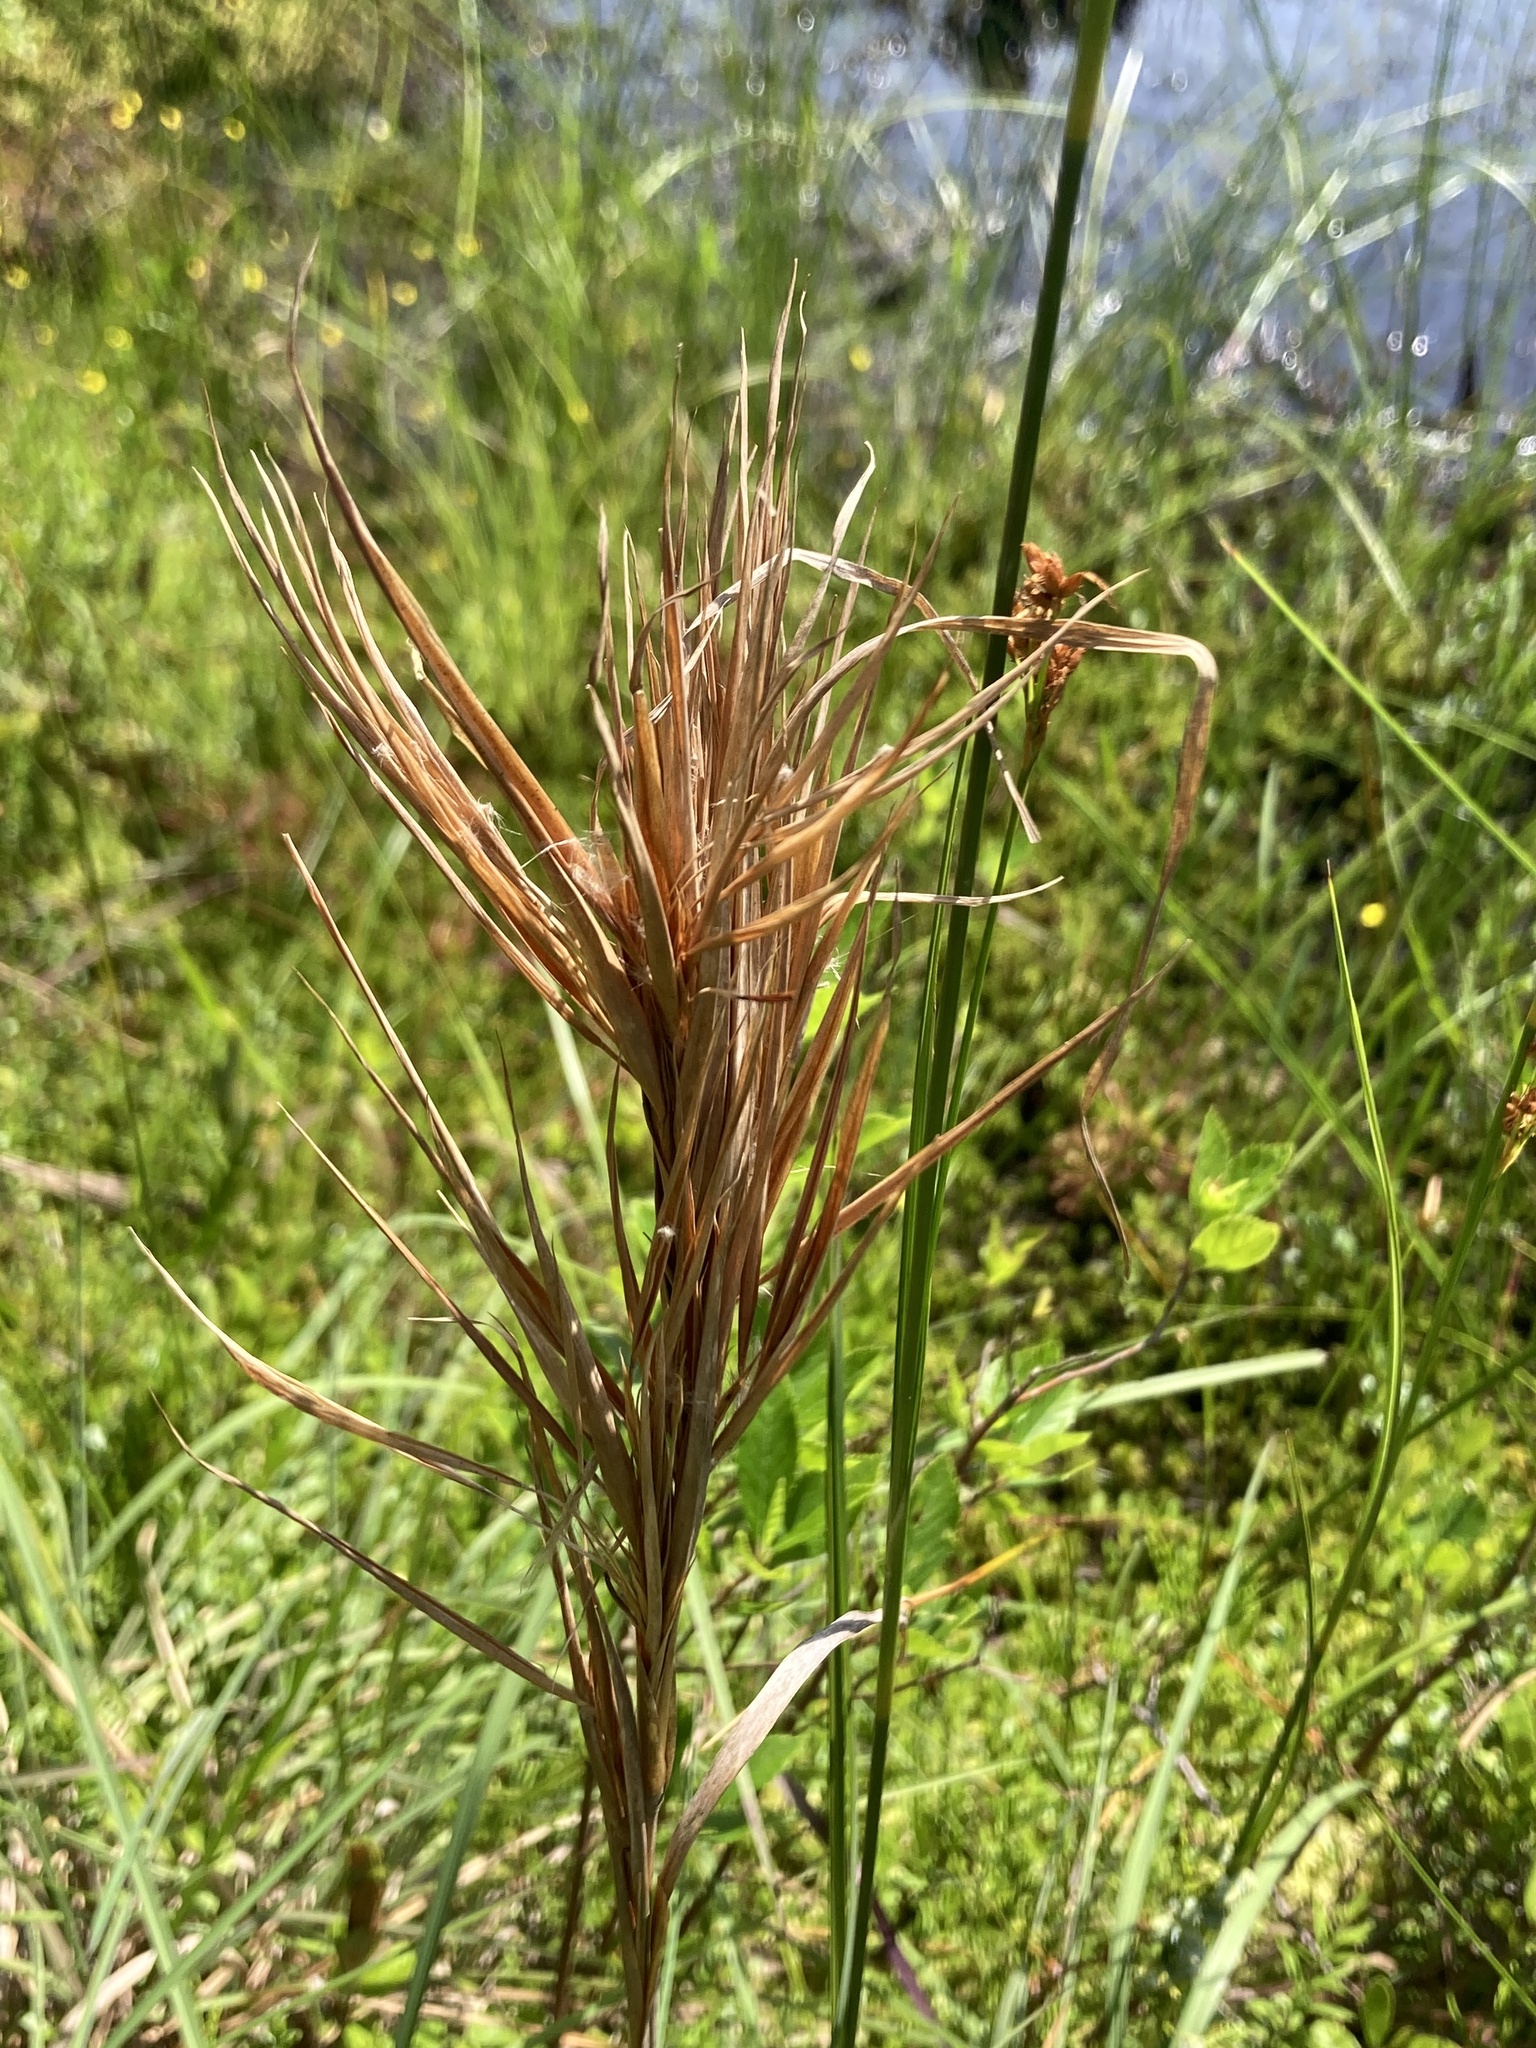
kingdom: Plantae
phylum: Tracheophyta
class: Liliopsida
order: Poales
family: Poaceae
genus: Andropogon
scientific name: Andropogon glomeratus
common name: Bushy beard grass
